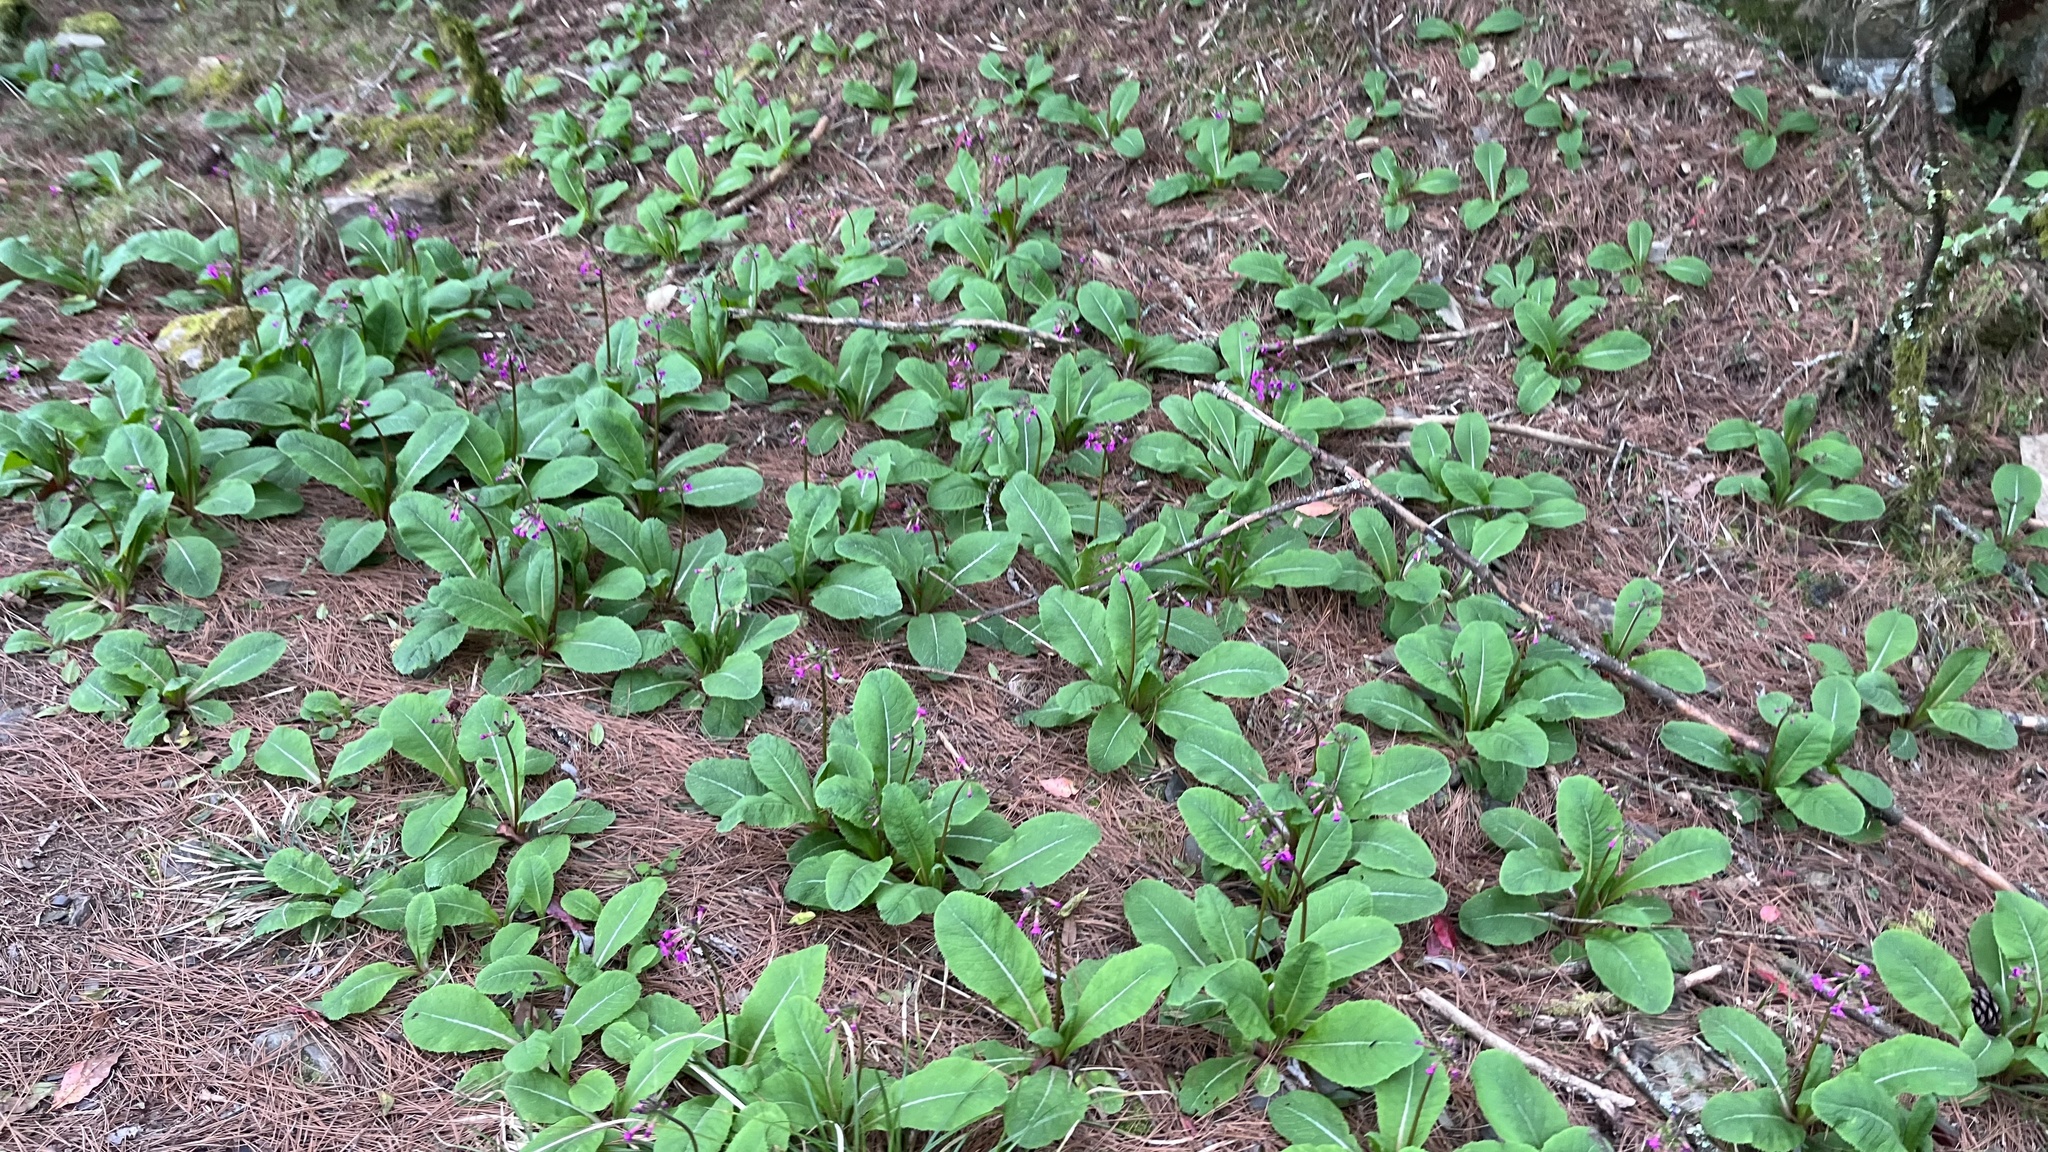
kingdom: Plantae
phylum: Tracheophyta
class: Magnoliopsida
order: Ericales
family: Primulaceae
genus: Primula
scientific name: Primula miyabeana
